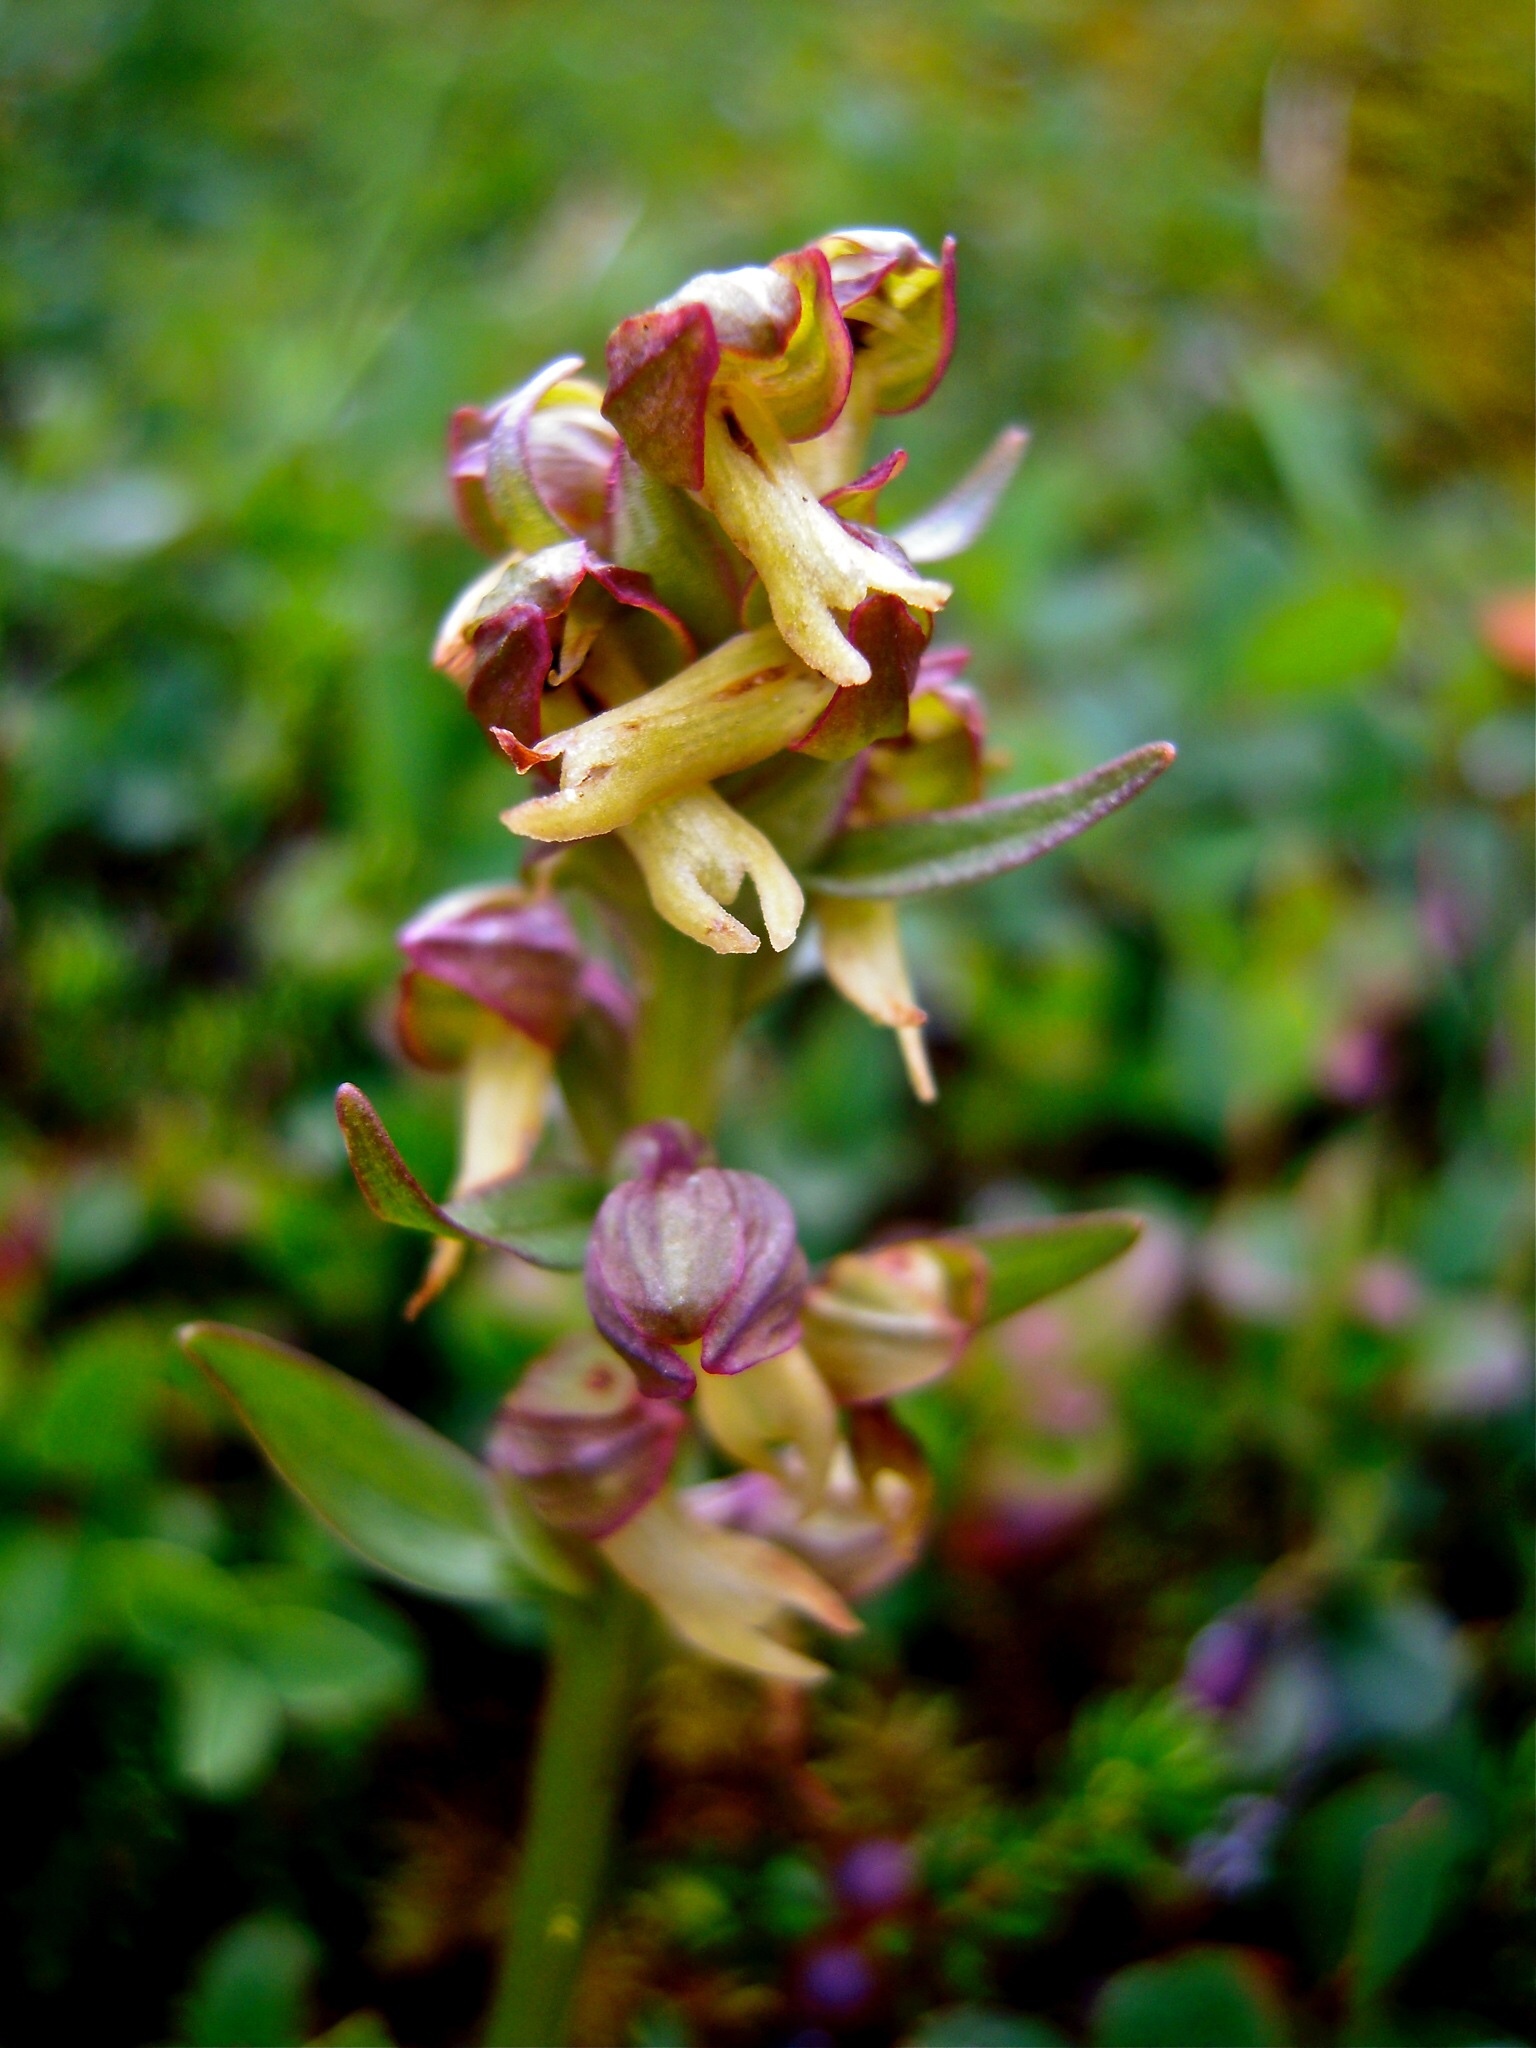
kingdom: Plantae
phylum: Tracheophyta
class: Liliopsida
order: Asparagales
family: Orchidaceae
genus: Dactylorhiza
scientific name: Dactylorhiza viridis
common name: Longbract frog orchid
